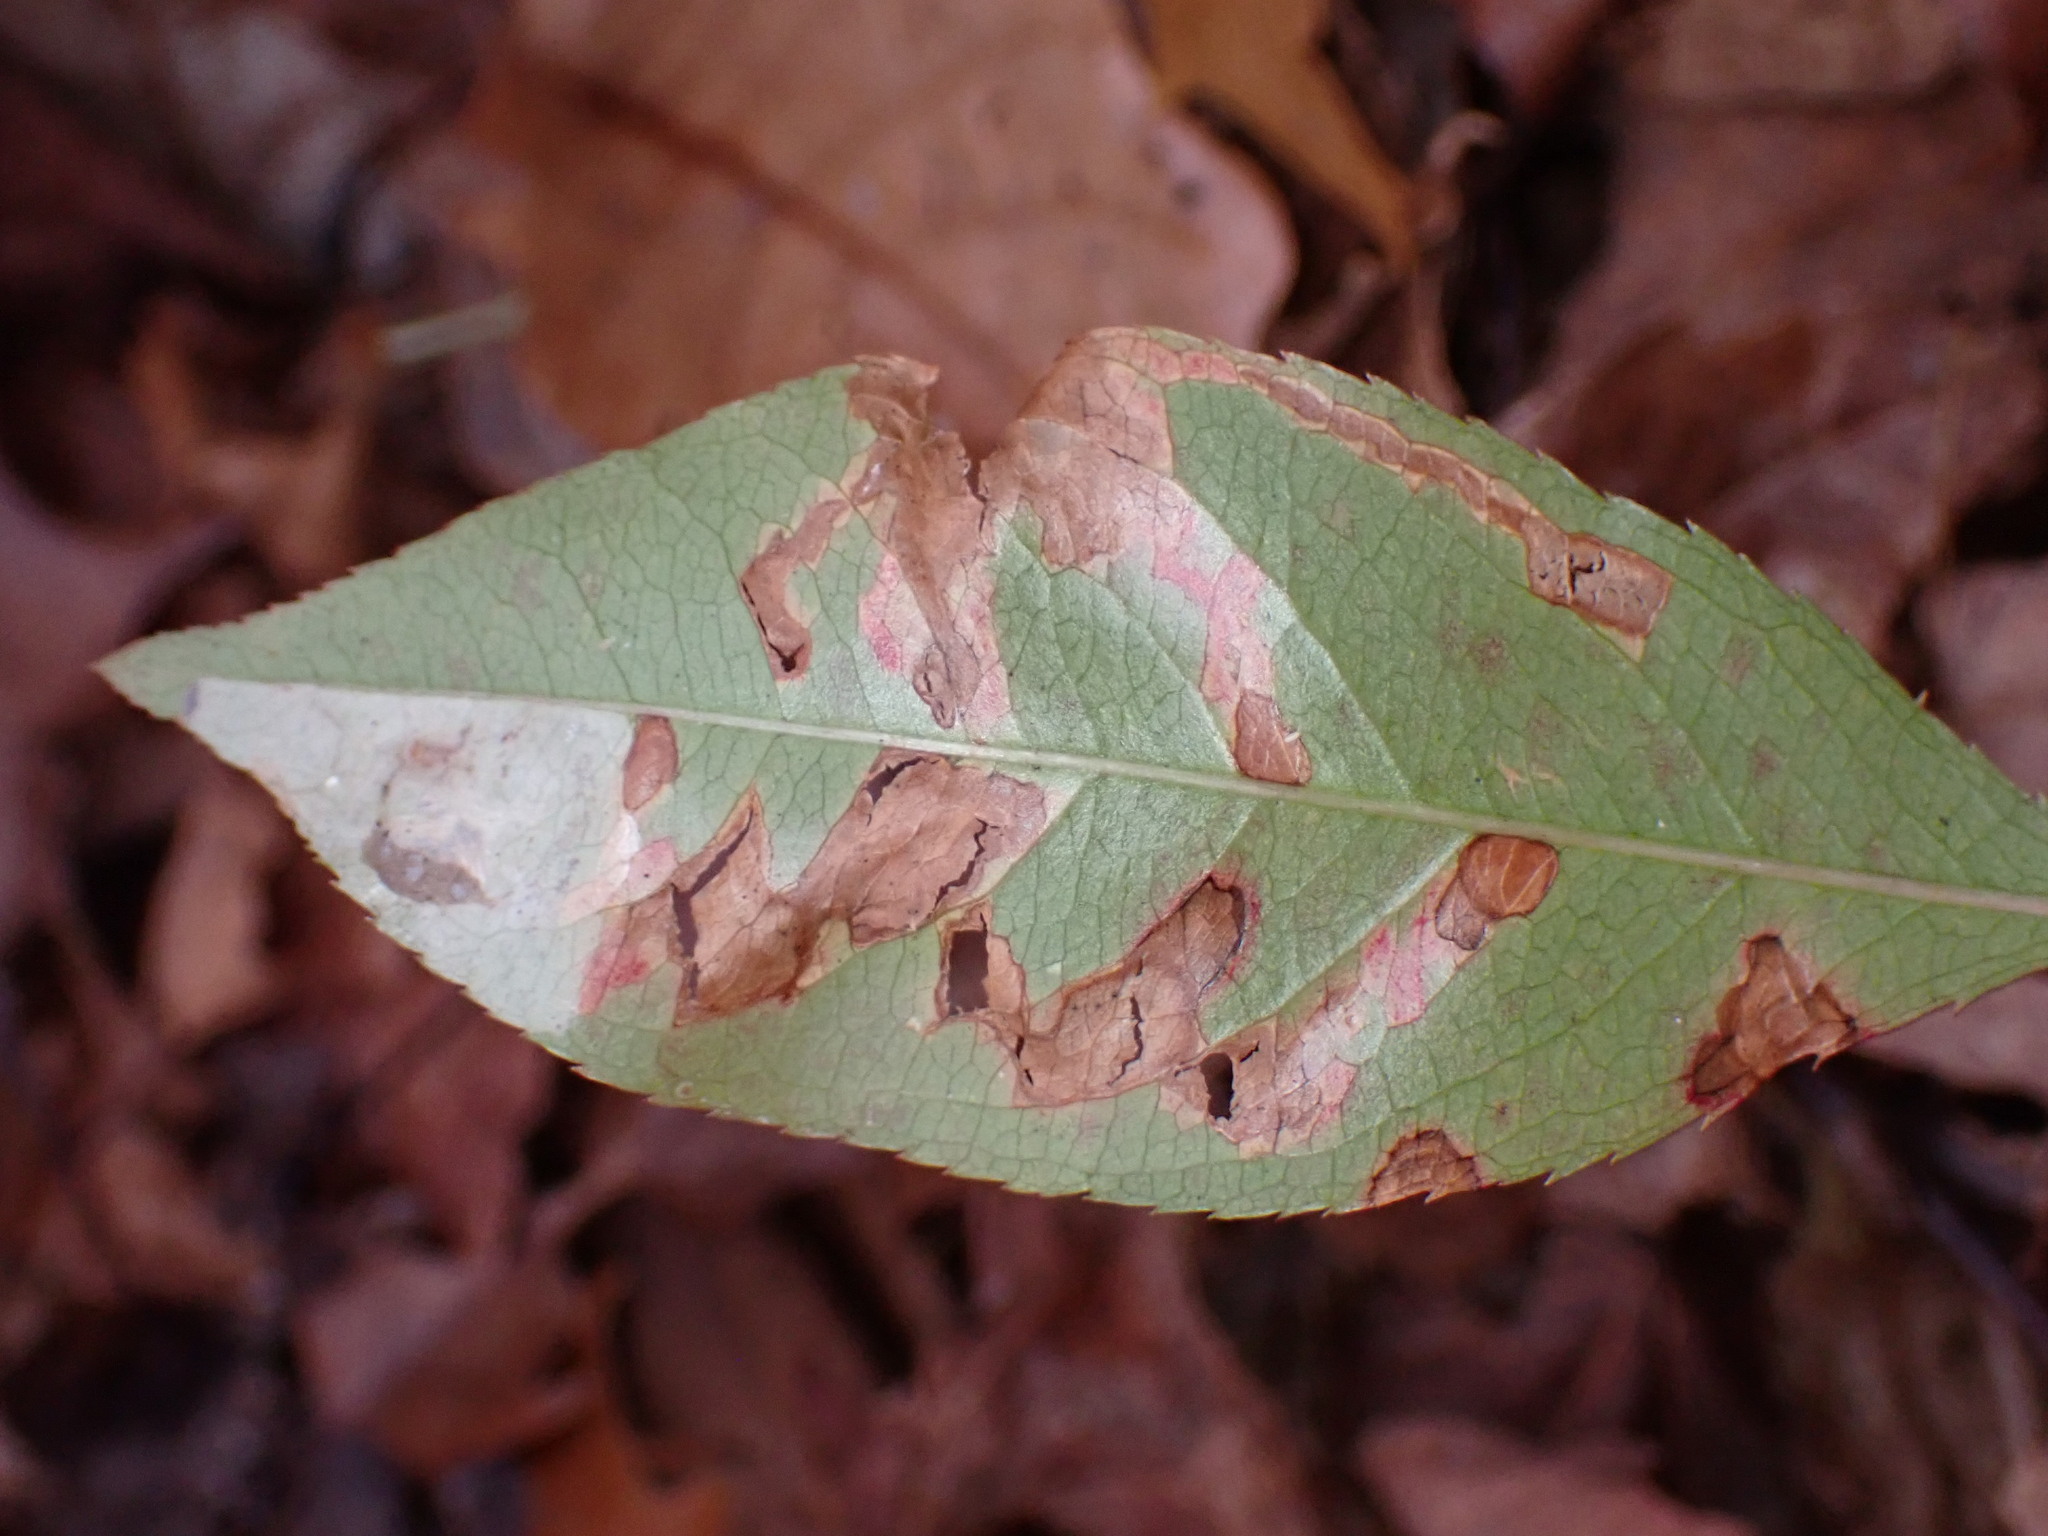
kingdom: Animalia
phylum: Arthropoda
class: Insecta
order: Lepidoptera
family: Nepticulidae
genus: Stigmella
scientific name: Stigmella prunifoliella
